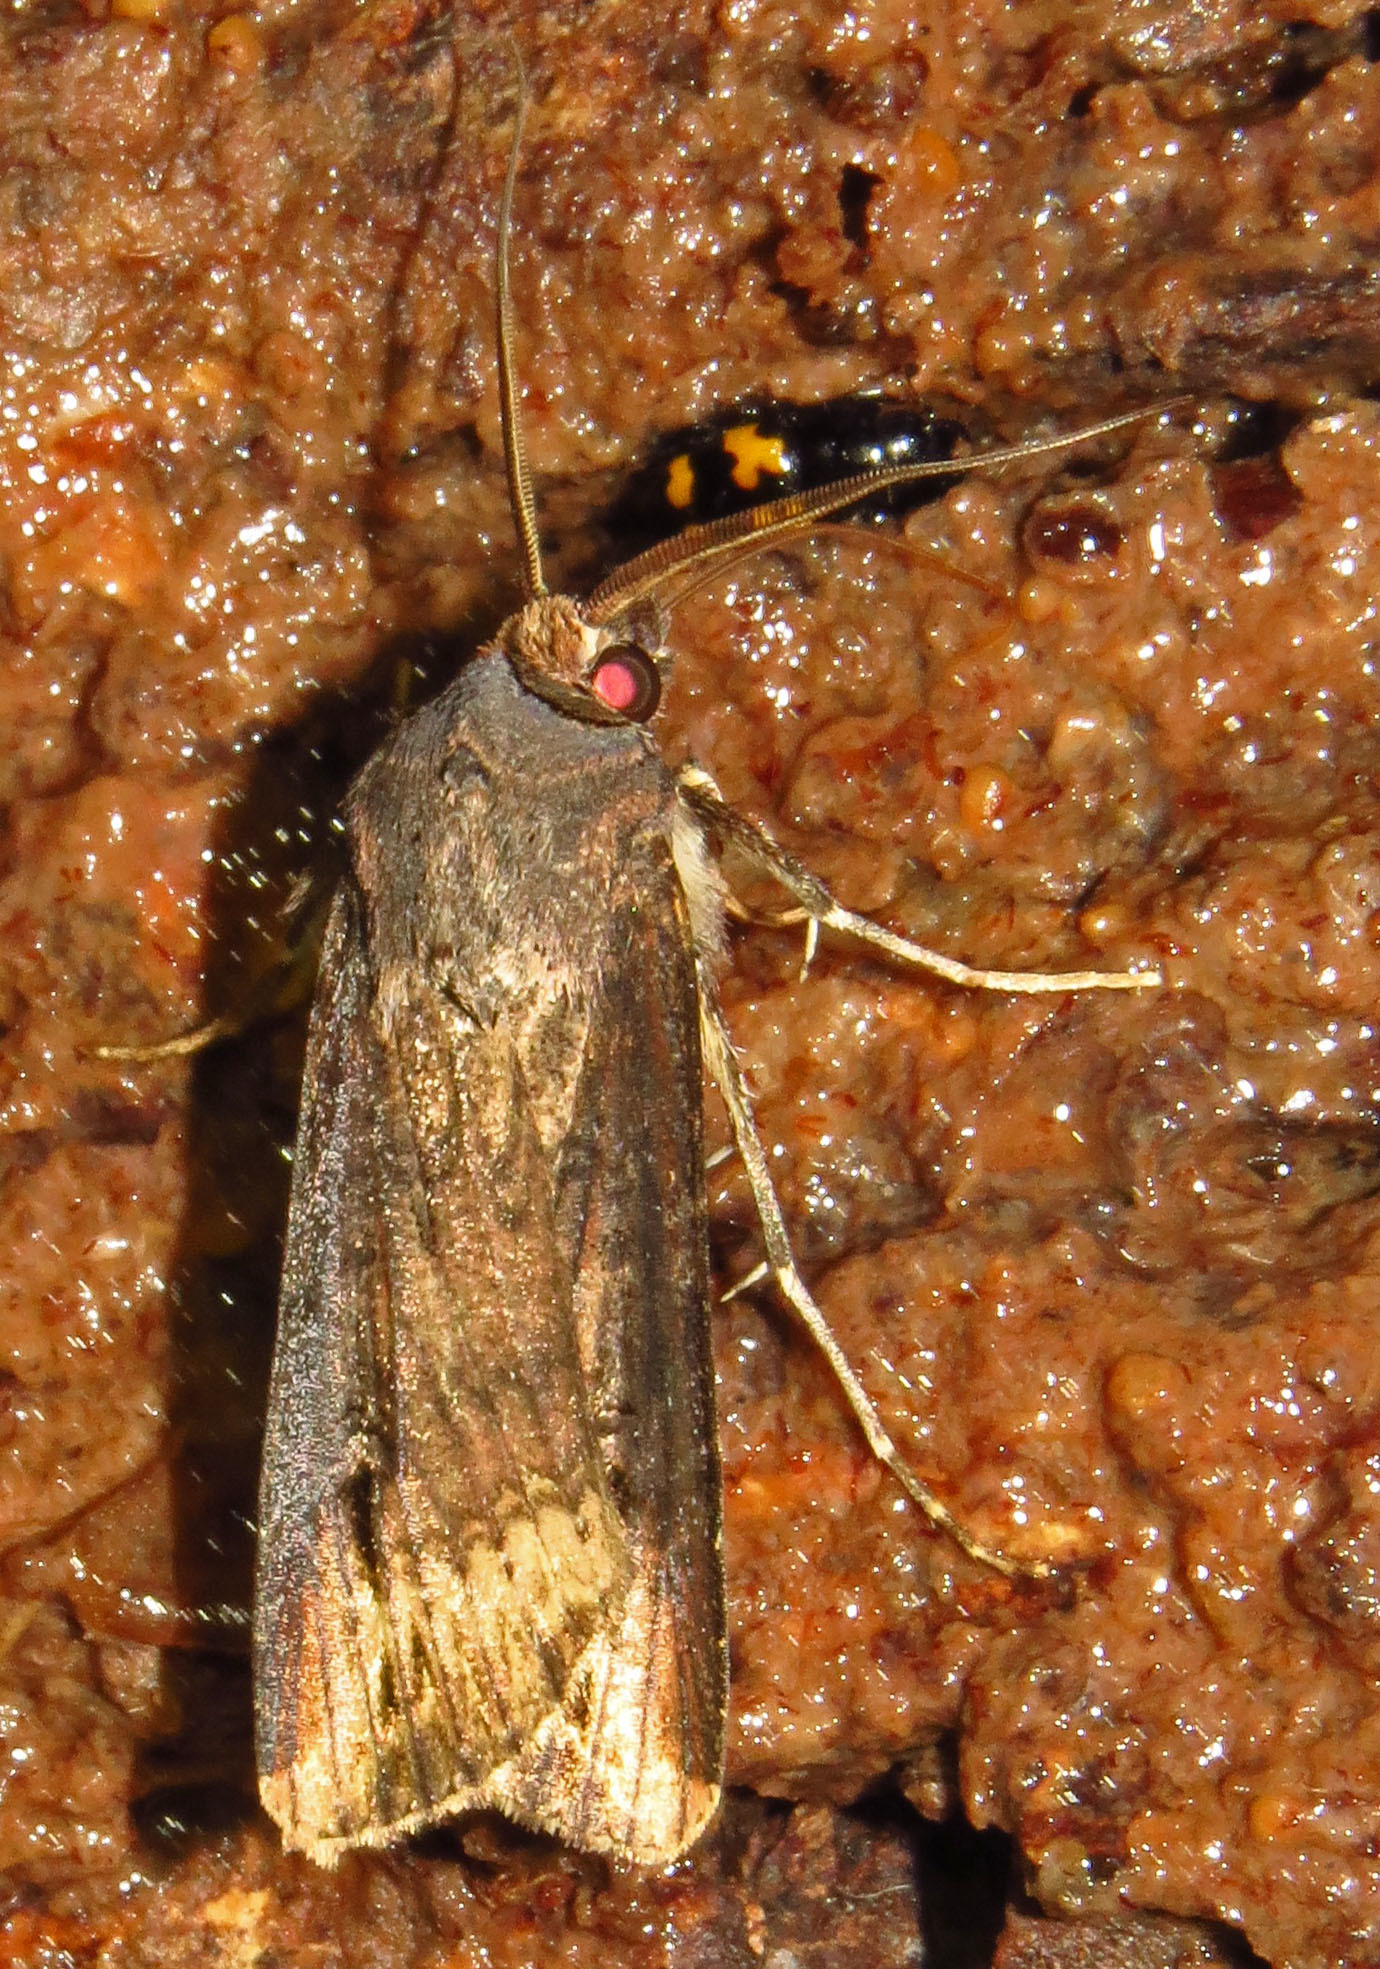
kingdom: Animalia
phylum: Arthropoda
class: Insecta
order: Lepidoptera
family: Noctuidae
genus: Agrotis
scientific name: Agrotis ipsilon
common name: Dark sword-grass
